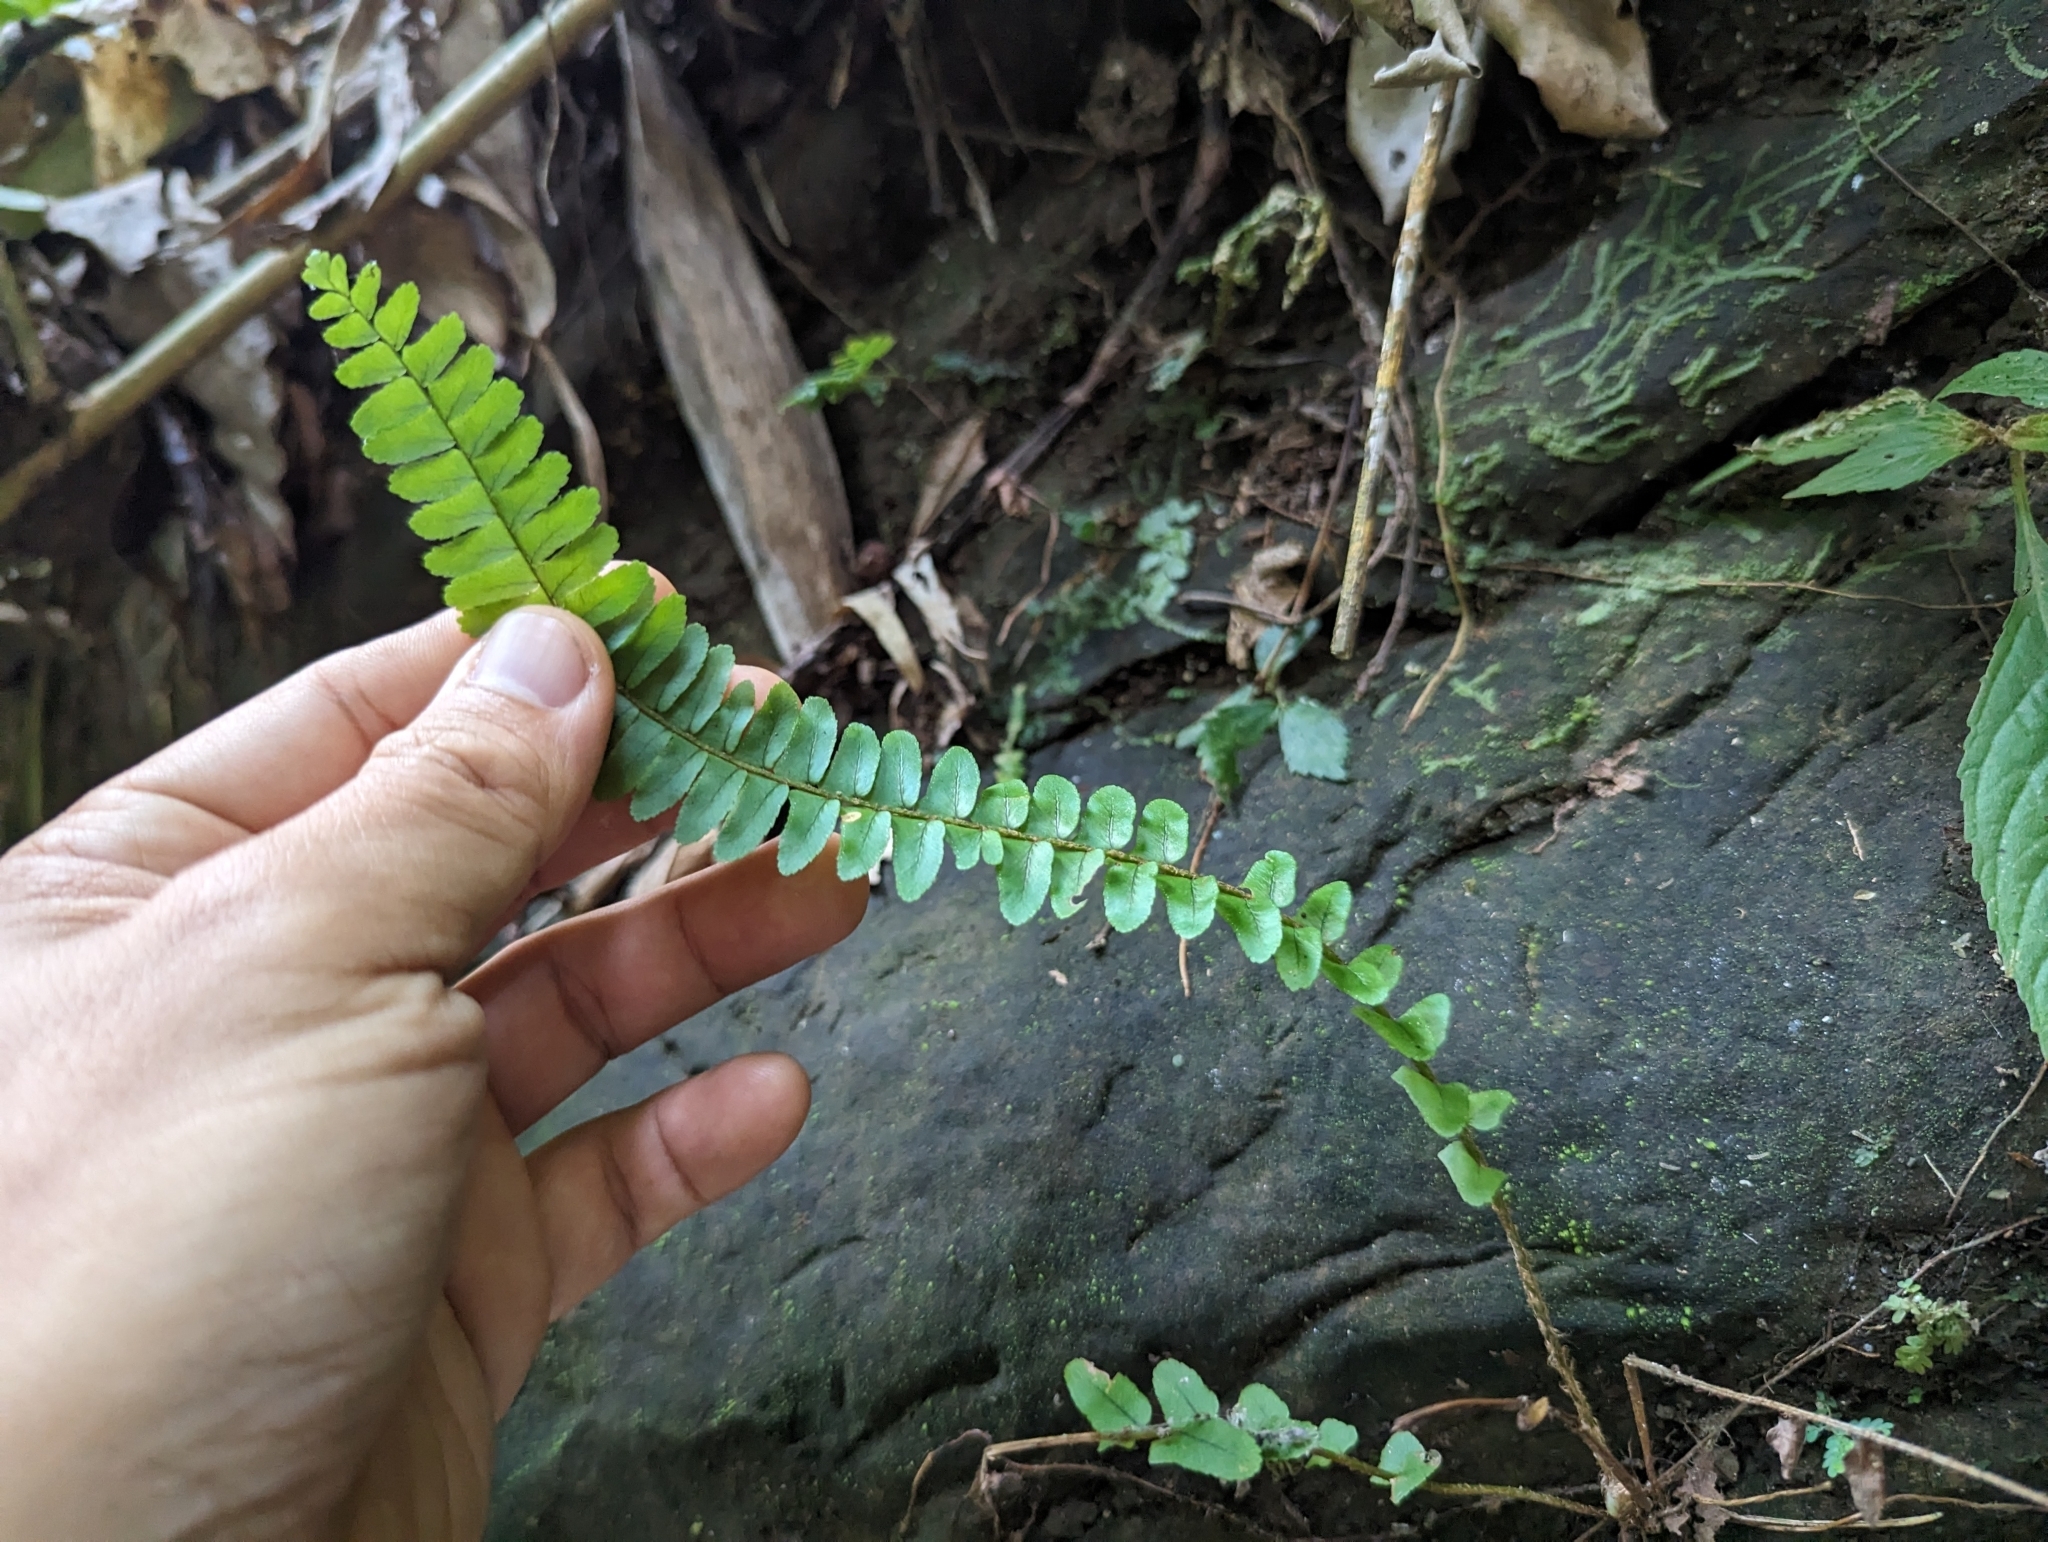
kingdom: Plantae
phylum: Tracheophyta
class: Polypodiopsida
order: Polypodiales
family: Nephrolepidaceae
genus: Nephrolepis
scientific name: Nephrolepis cordifolia
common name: Narrow swordfern
